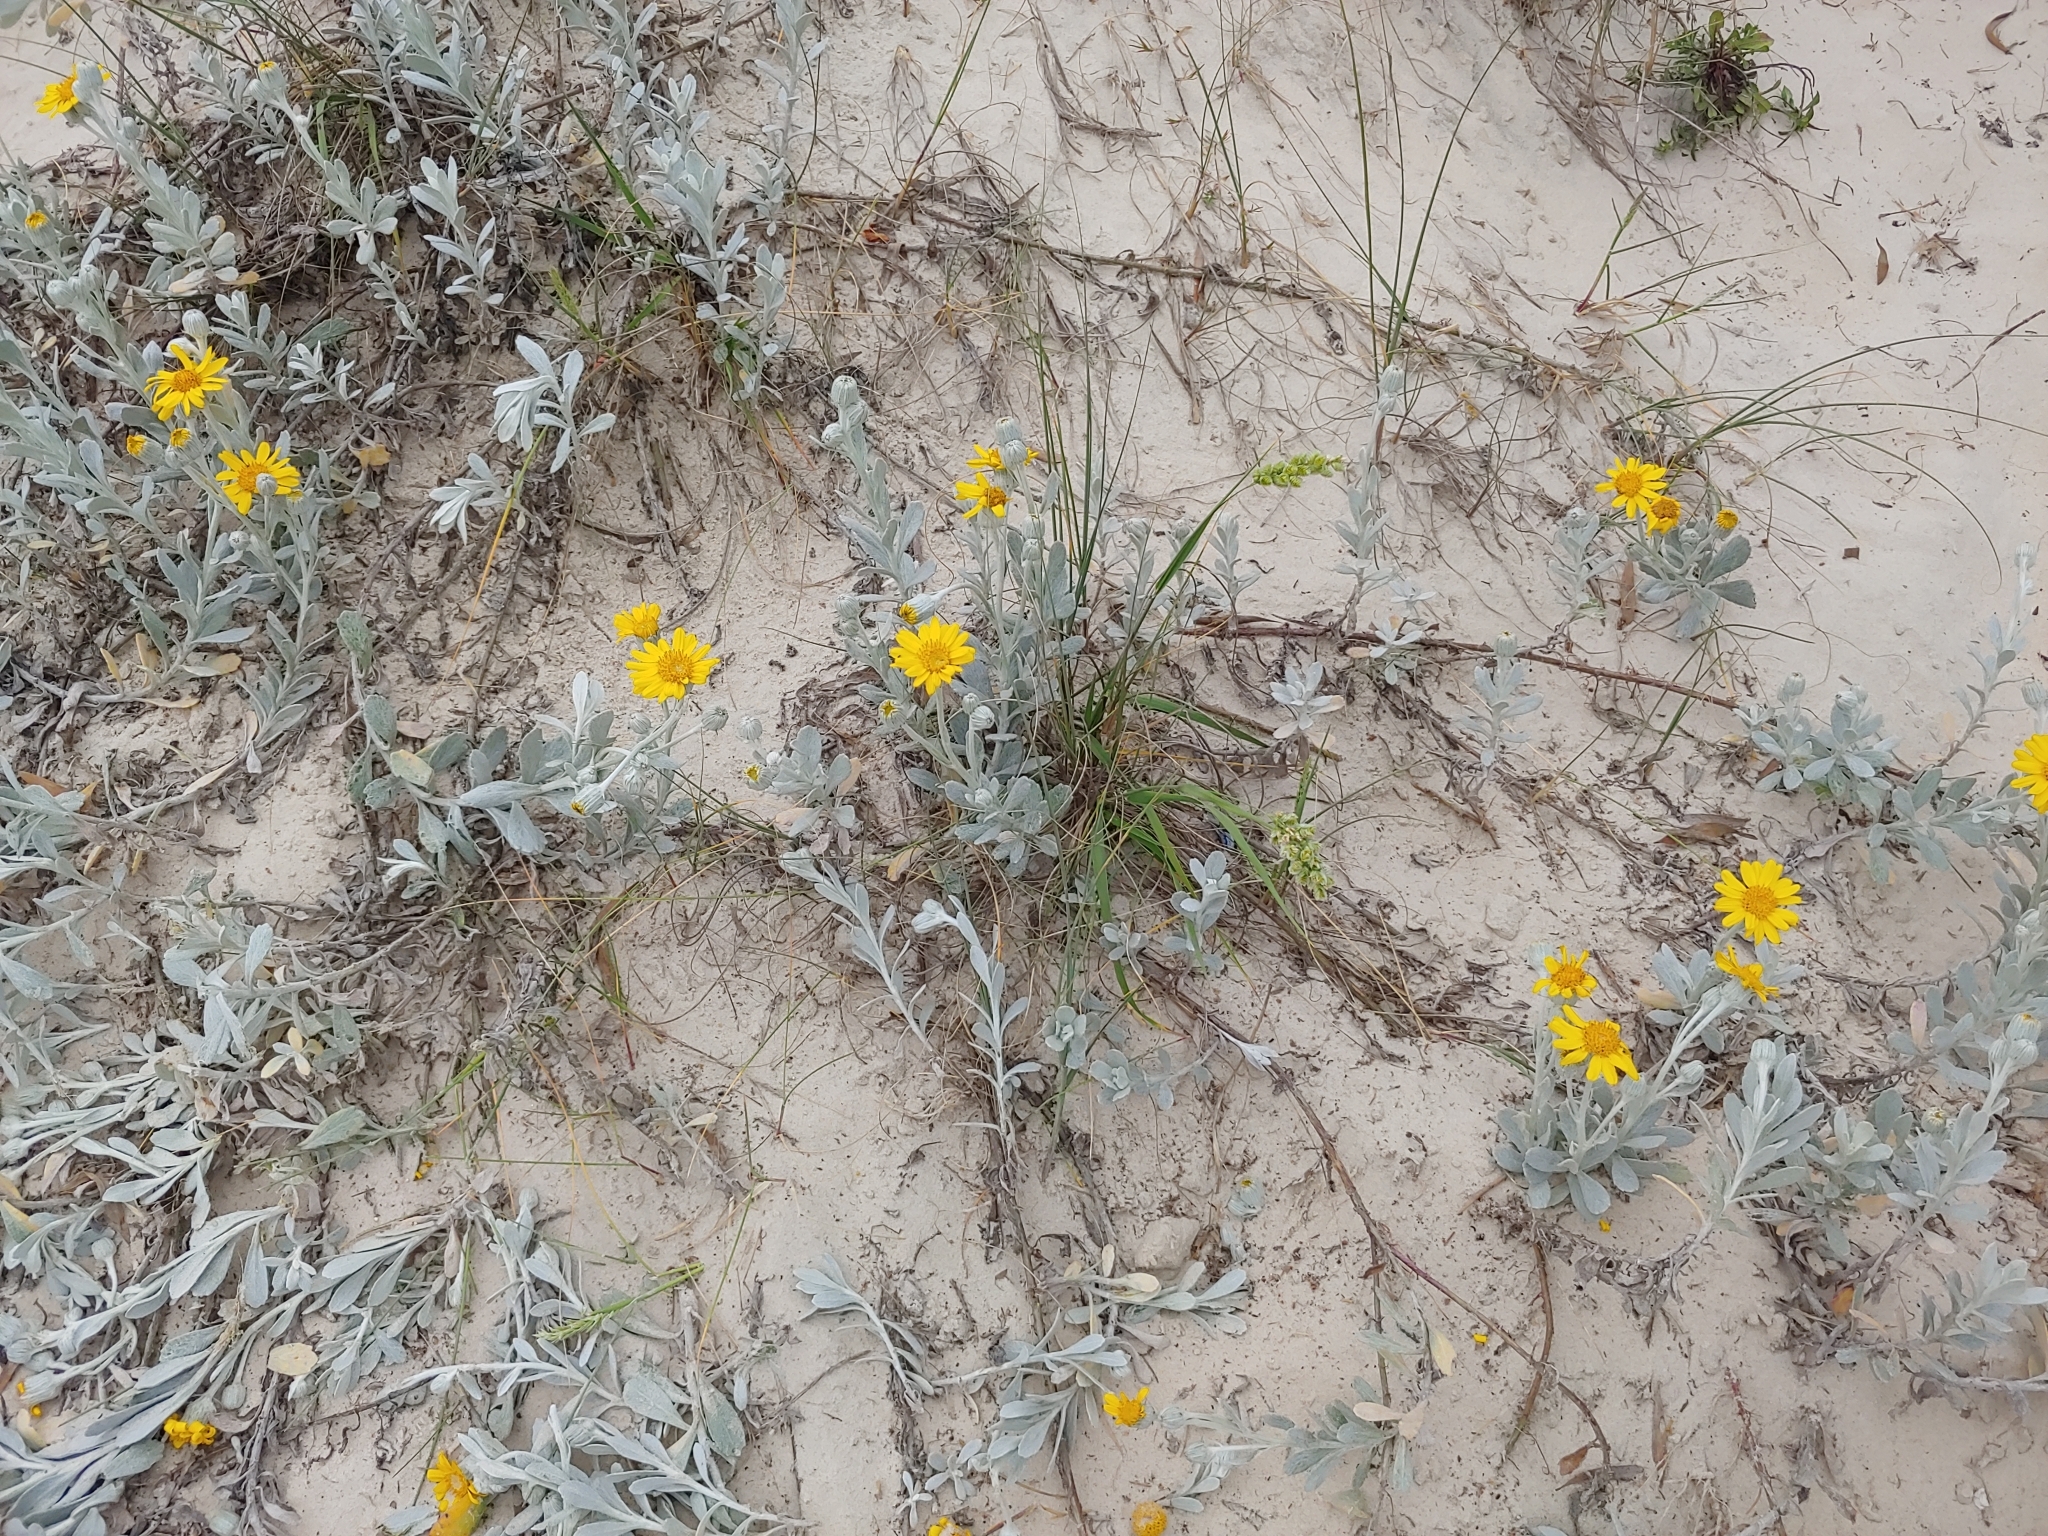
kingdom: Plantae
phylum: Tracheophyta
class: Magnoliopsida
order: Asterales
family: Asteraceae
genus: Senecio
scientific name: Senecio crassiflorus
